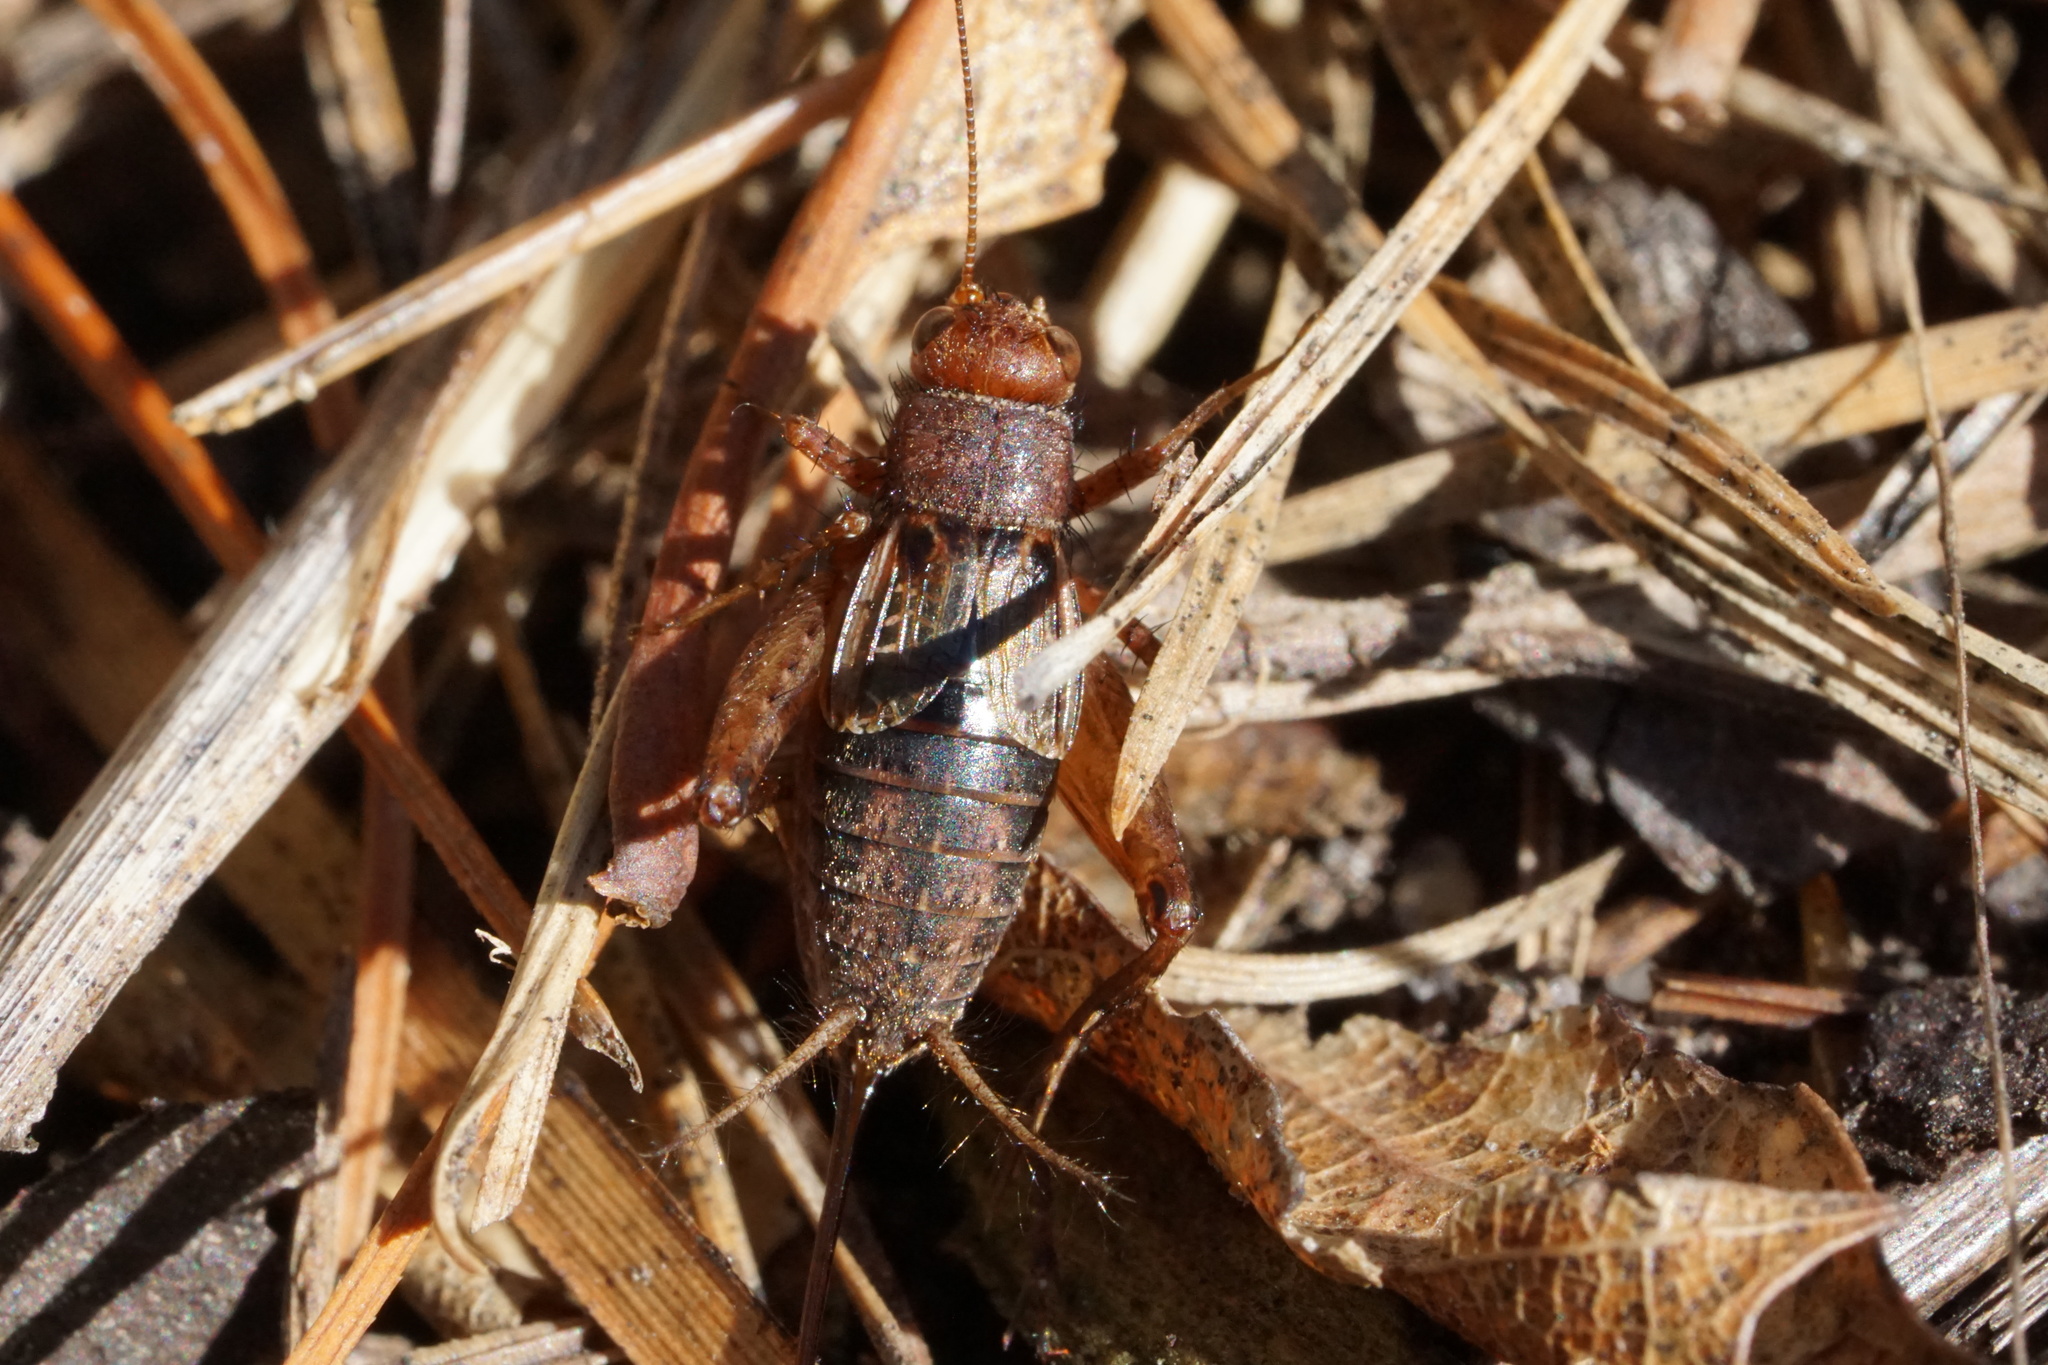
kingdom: Animalia
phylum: Arthropoda
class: Insecta
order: Orthoptera
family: Trigonidiidae
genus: Allonemobius
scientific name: Allonemobius tinnulus
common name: Tinkling ground cricket
